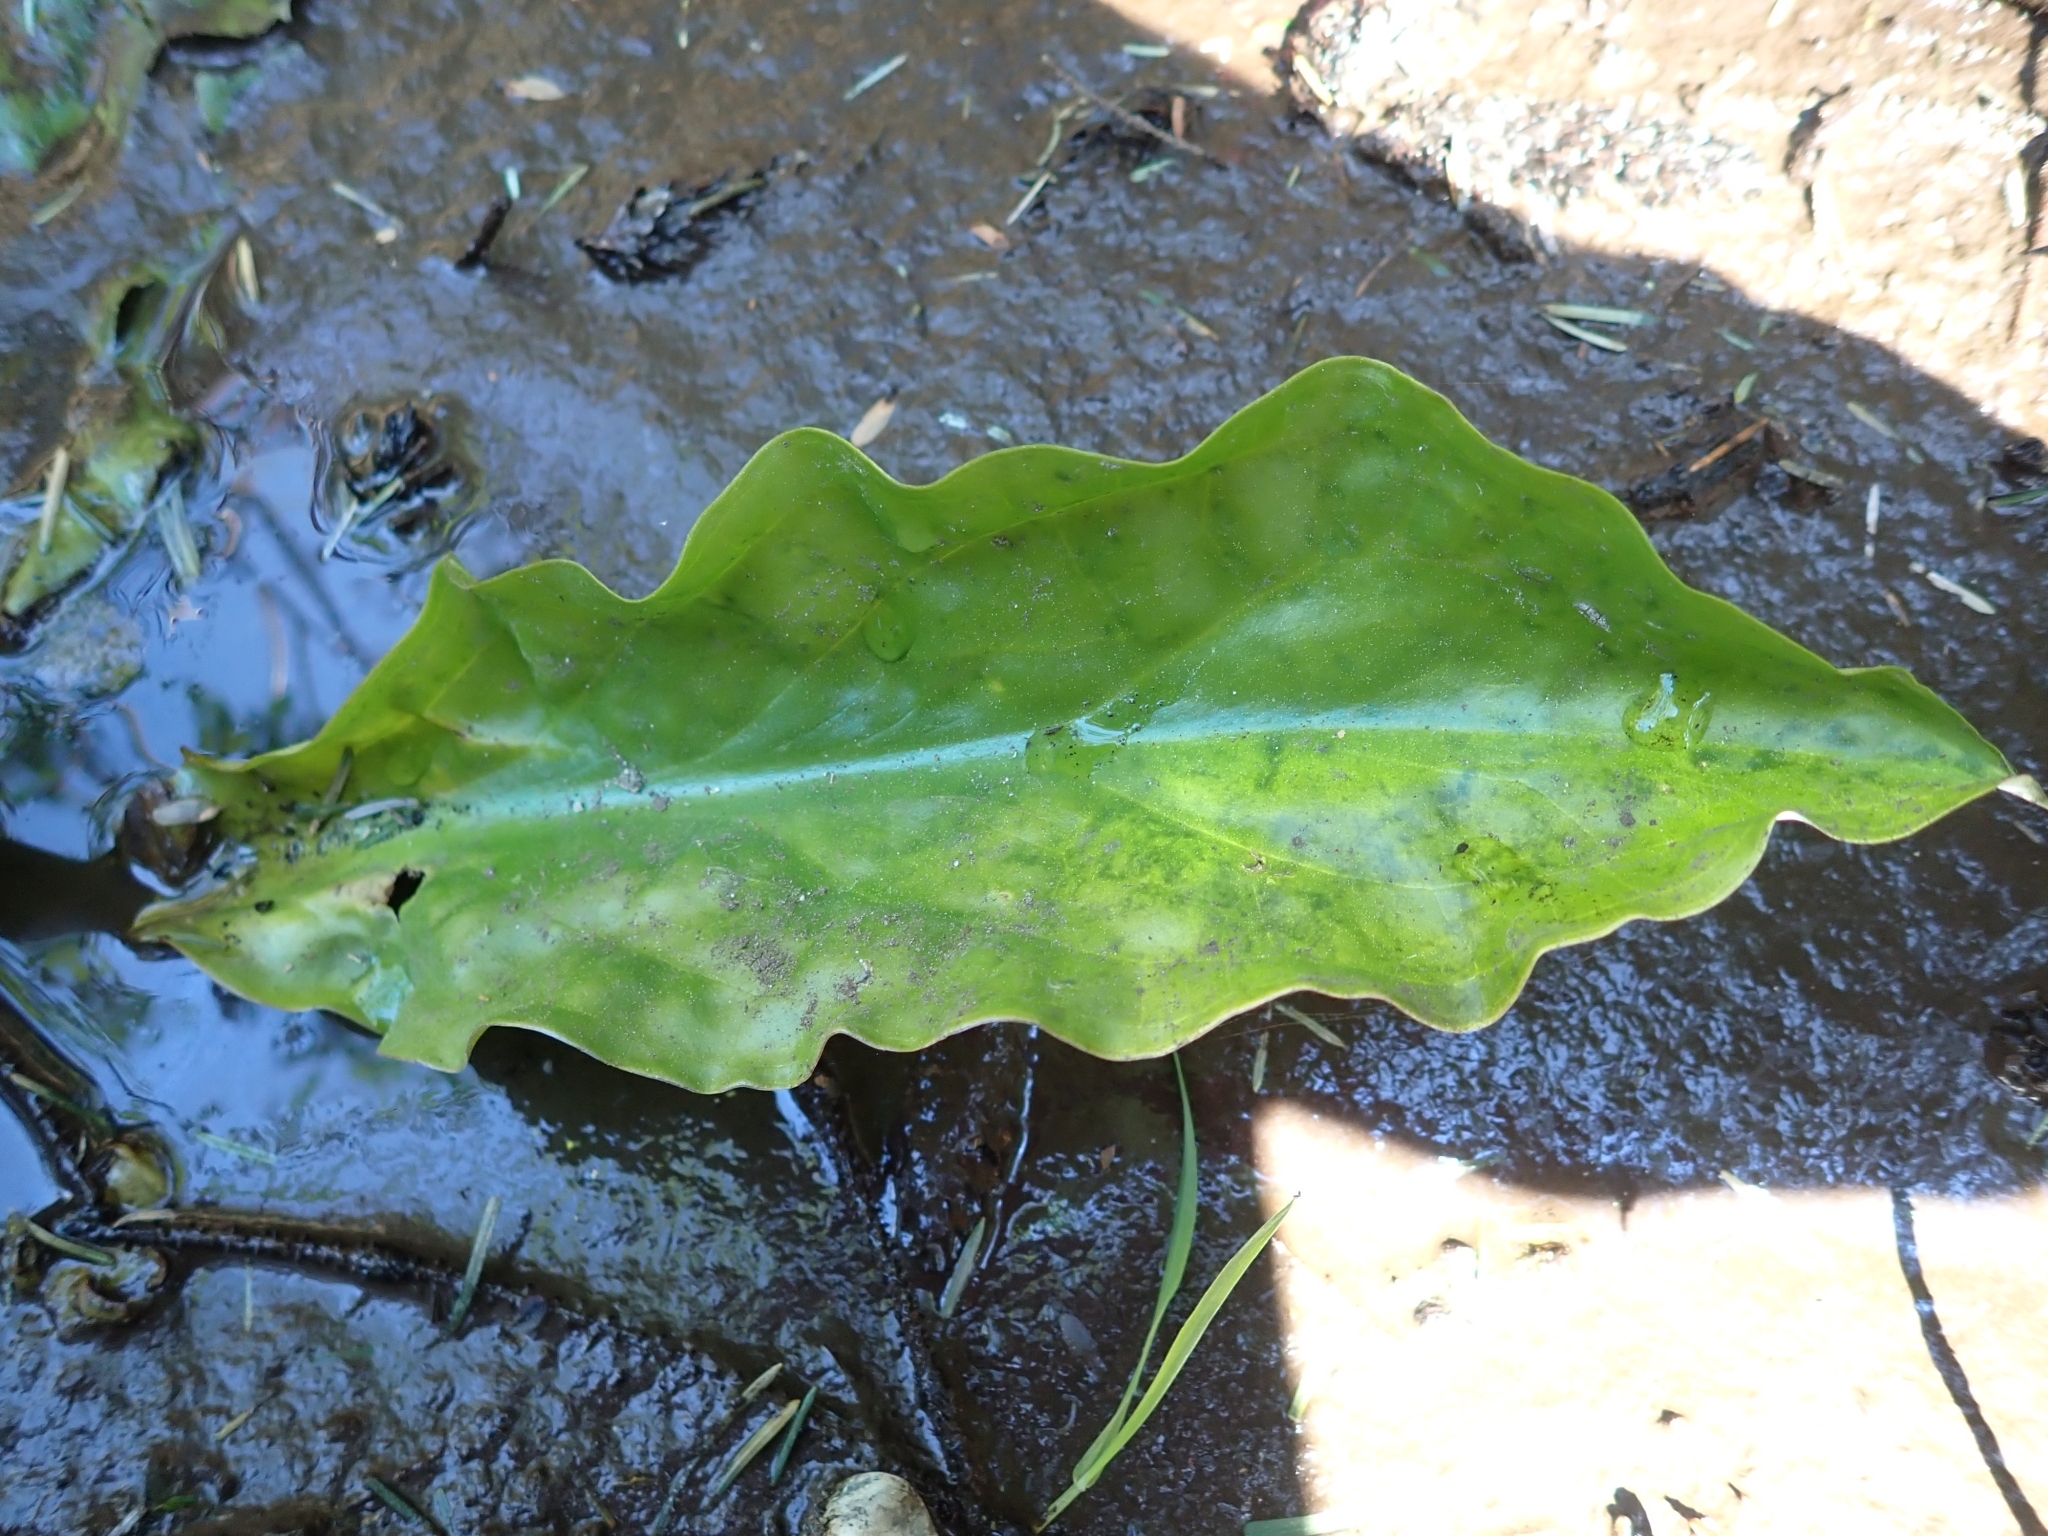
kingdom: Plantae
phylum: Tracheophyta
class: Liliopsida
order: Alismatales
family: Araceae
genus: Lysichiton
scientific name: Lysichiton americanus
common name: American skunk cabbage
